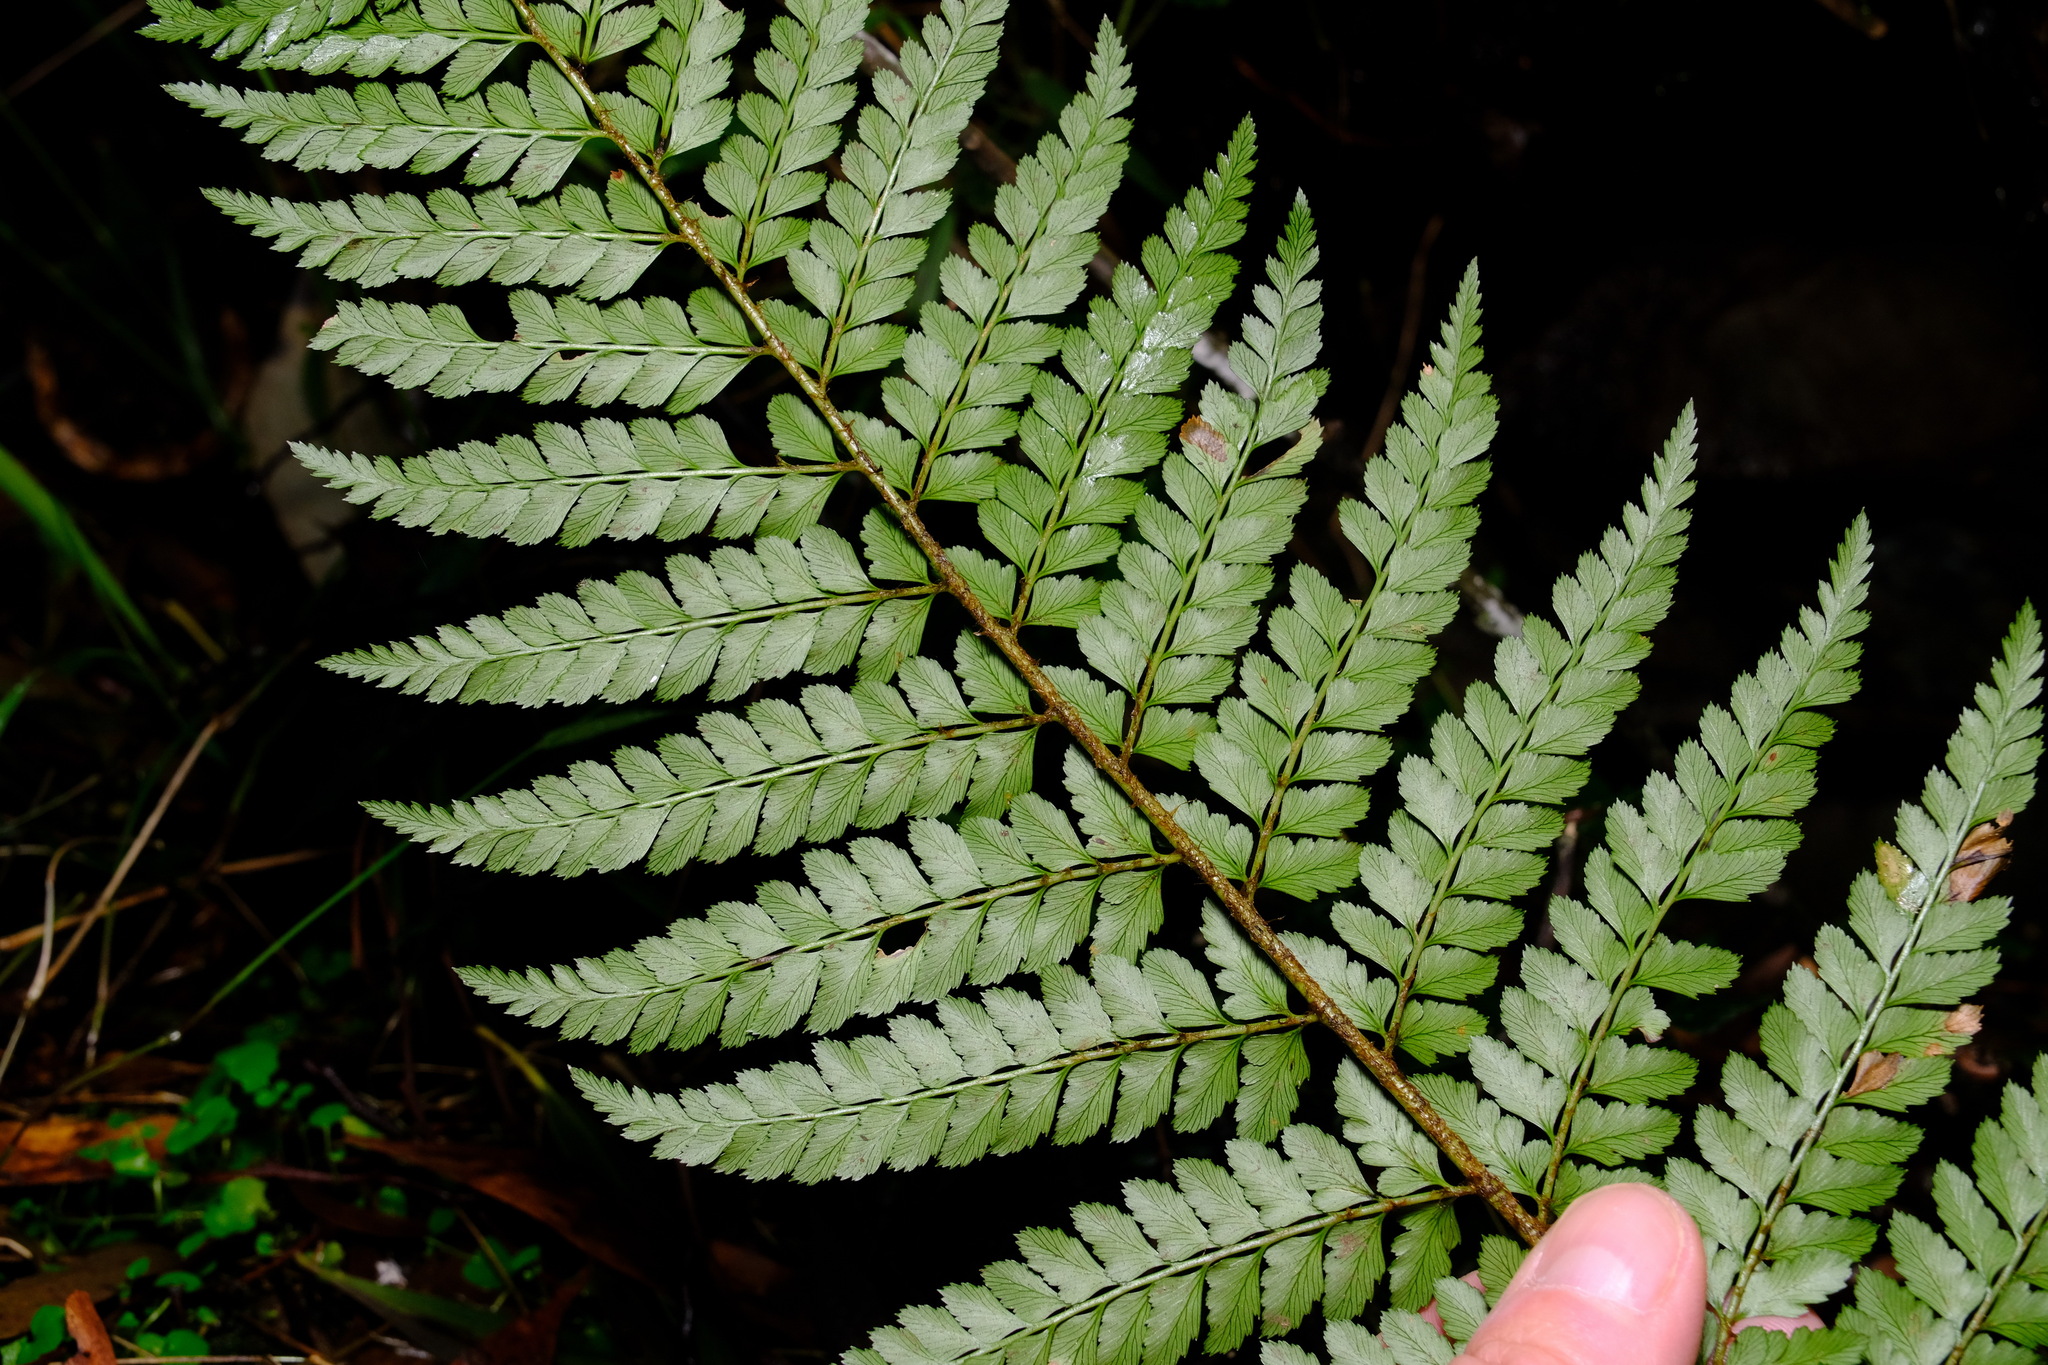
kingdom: Plantae
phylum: Tracheophyta
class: Polypodiopsida
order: Polypodiales
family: Dryopteridaceae
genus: Polystichum
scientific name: Polystichum proliferum
